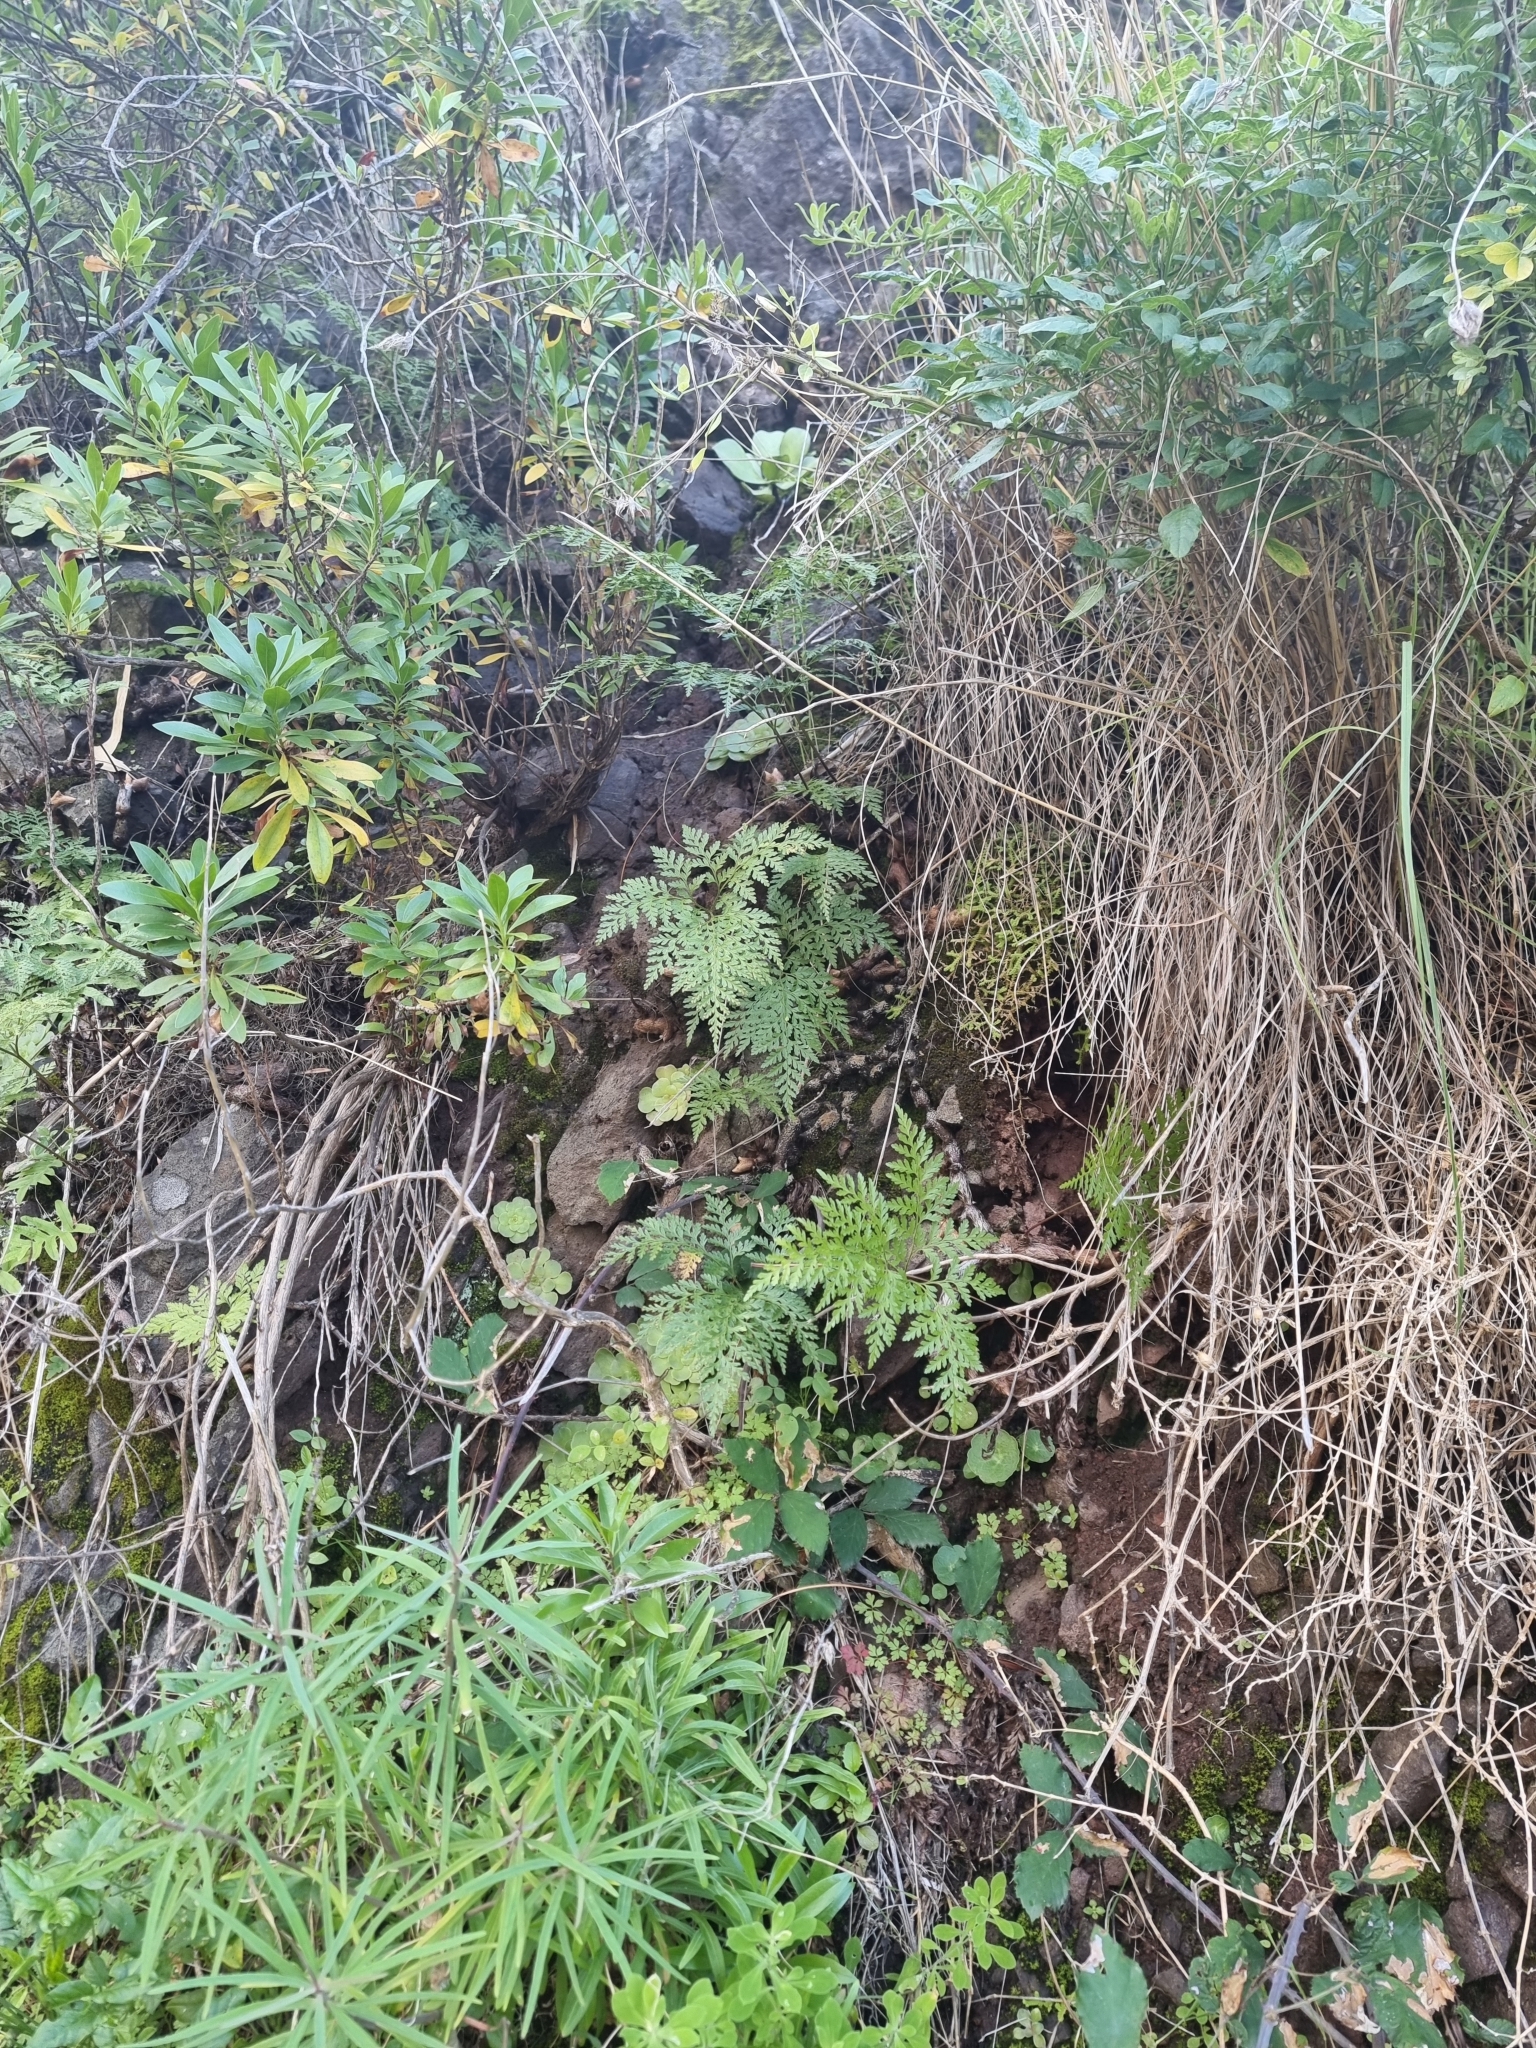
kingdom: Plantae
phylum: Tracheophyta
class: Polypodiopsida
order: Polypodiales
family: Davalliaceae
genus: Davallia
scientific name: Davallia canariensis
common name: Hare's-foot fern
